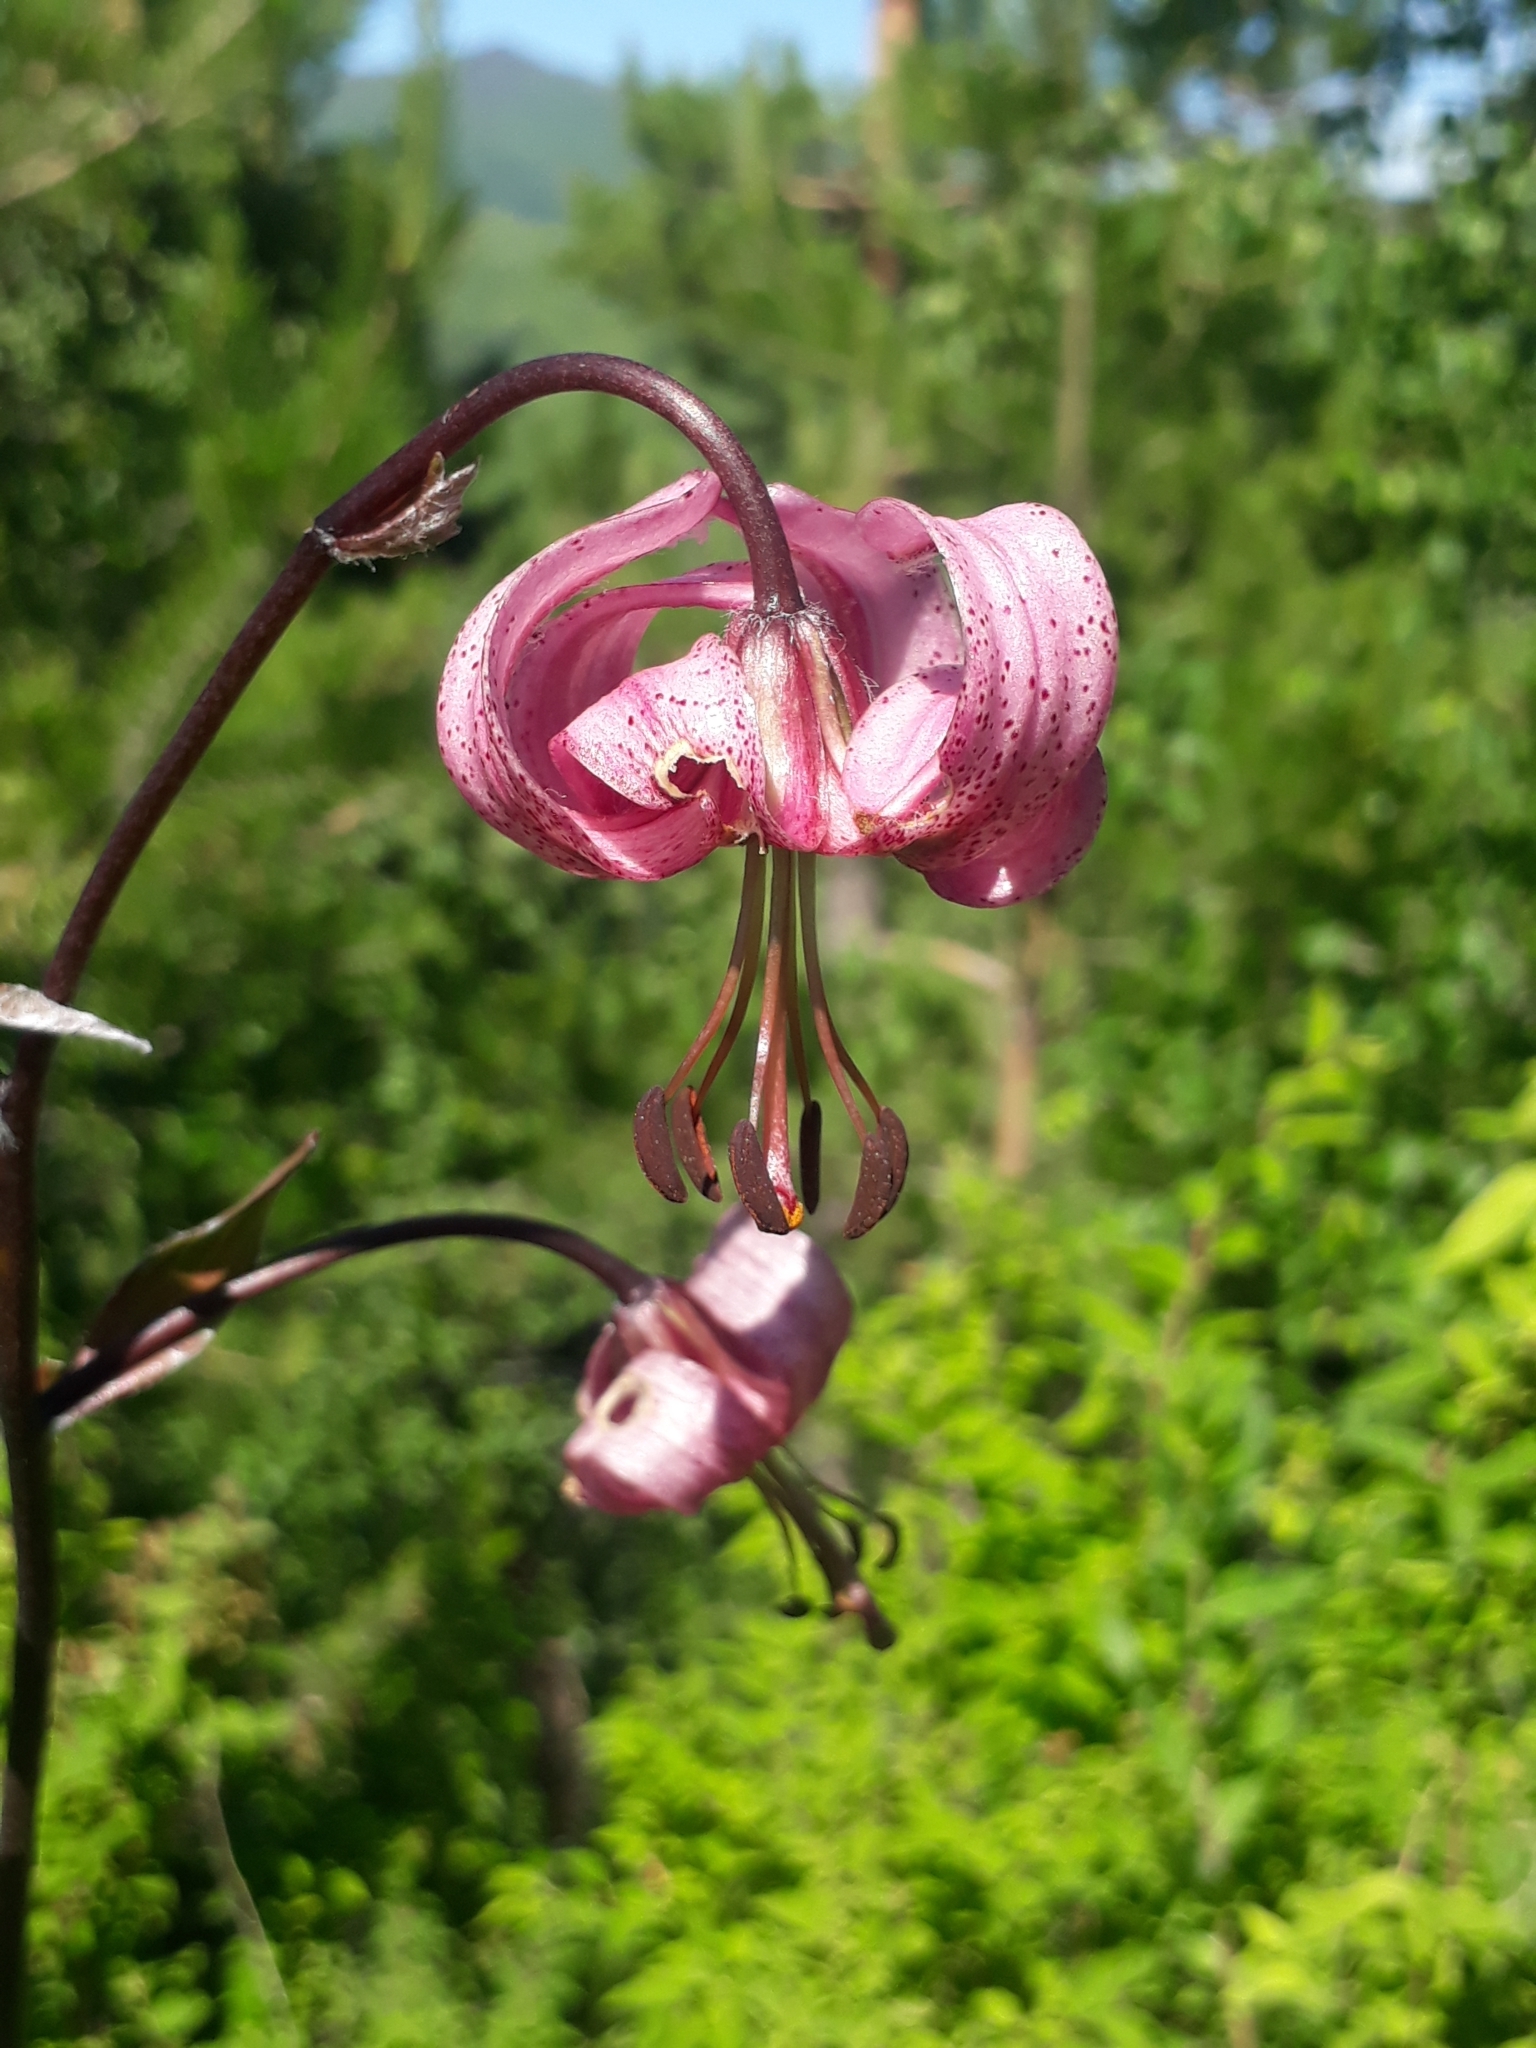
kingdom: Plantae
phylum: Tracheophyta
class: Liliopsida
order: Liliales
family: Liliaceae
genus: Lilium
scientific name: Lilium martagon
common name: Martagon lily
